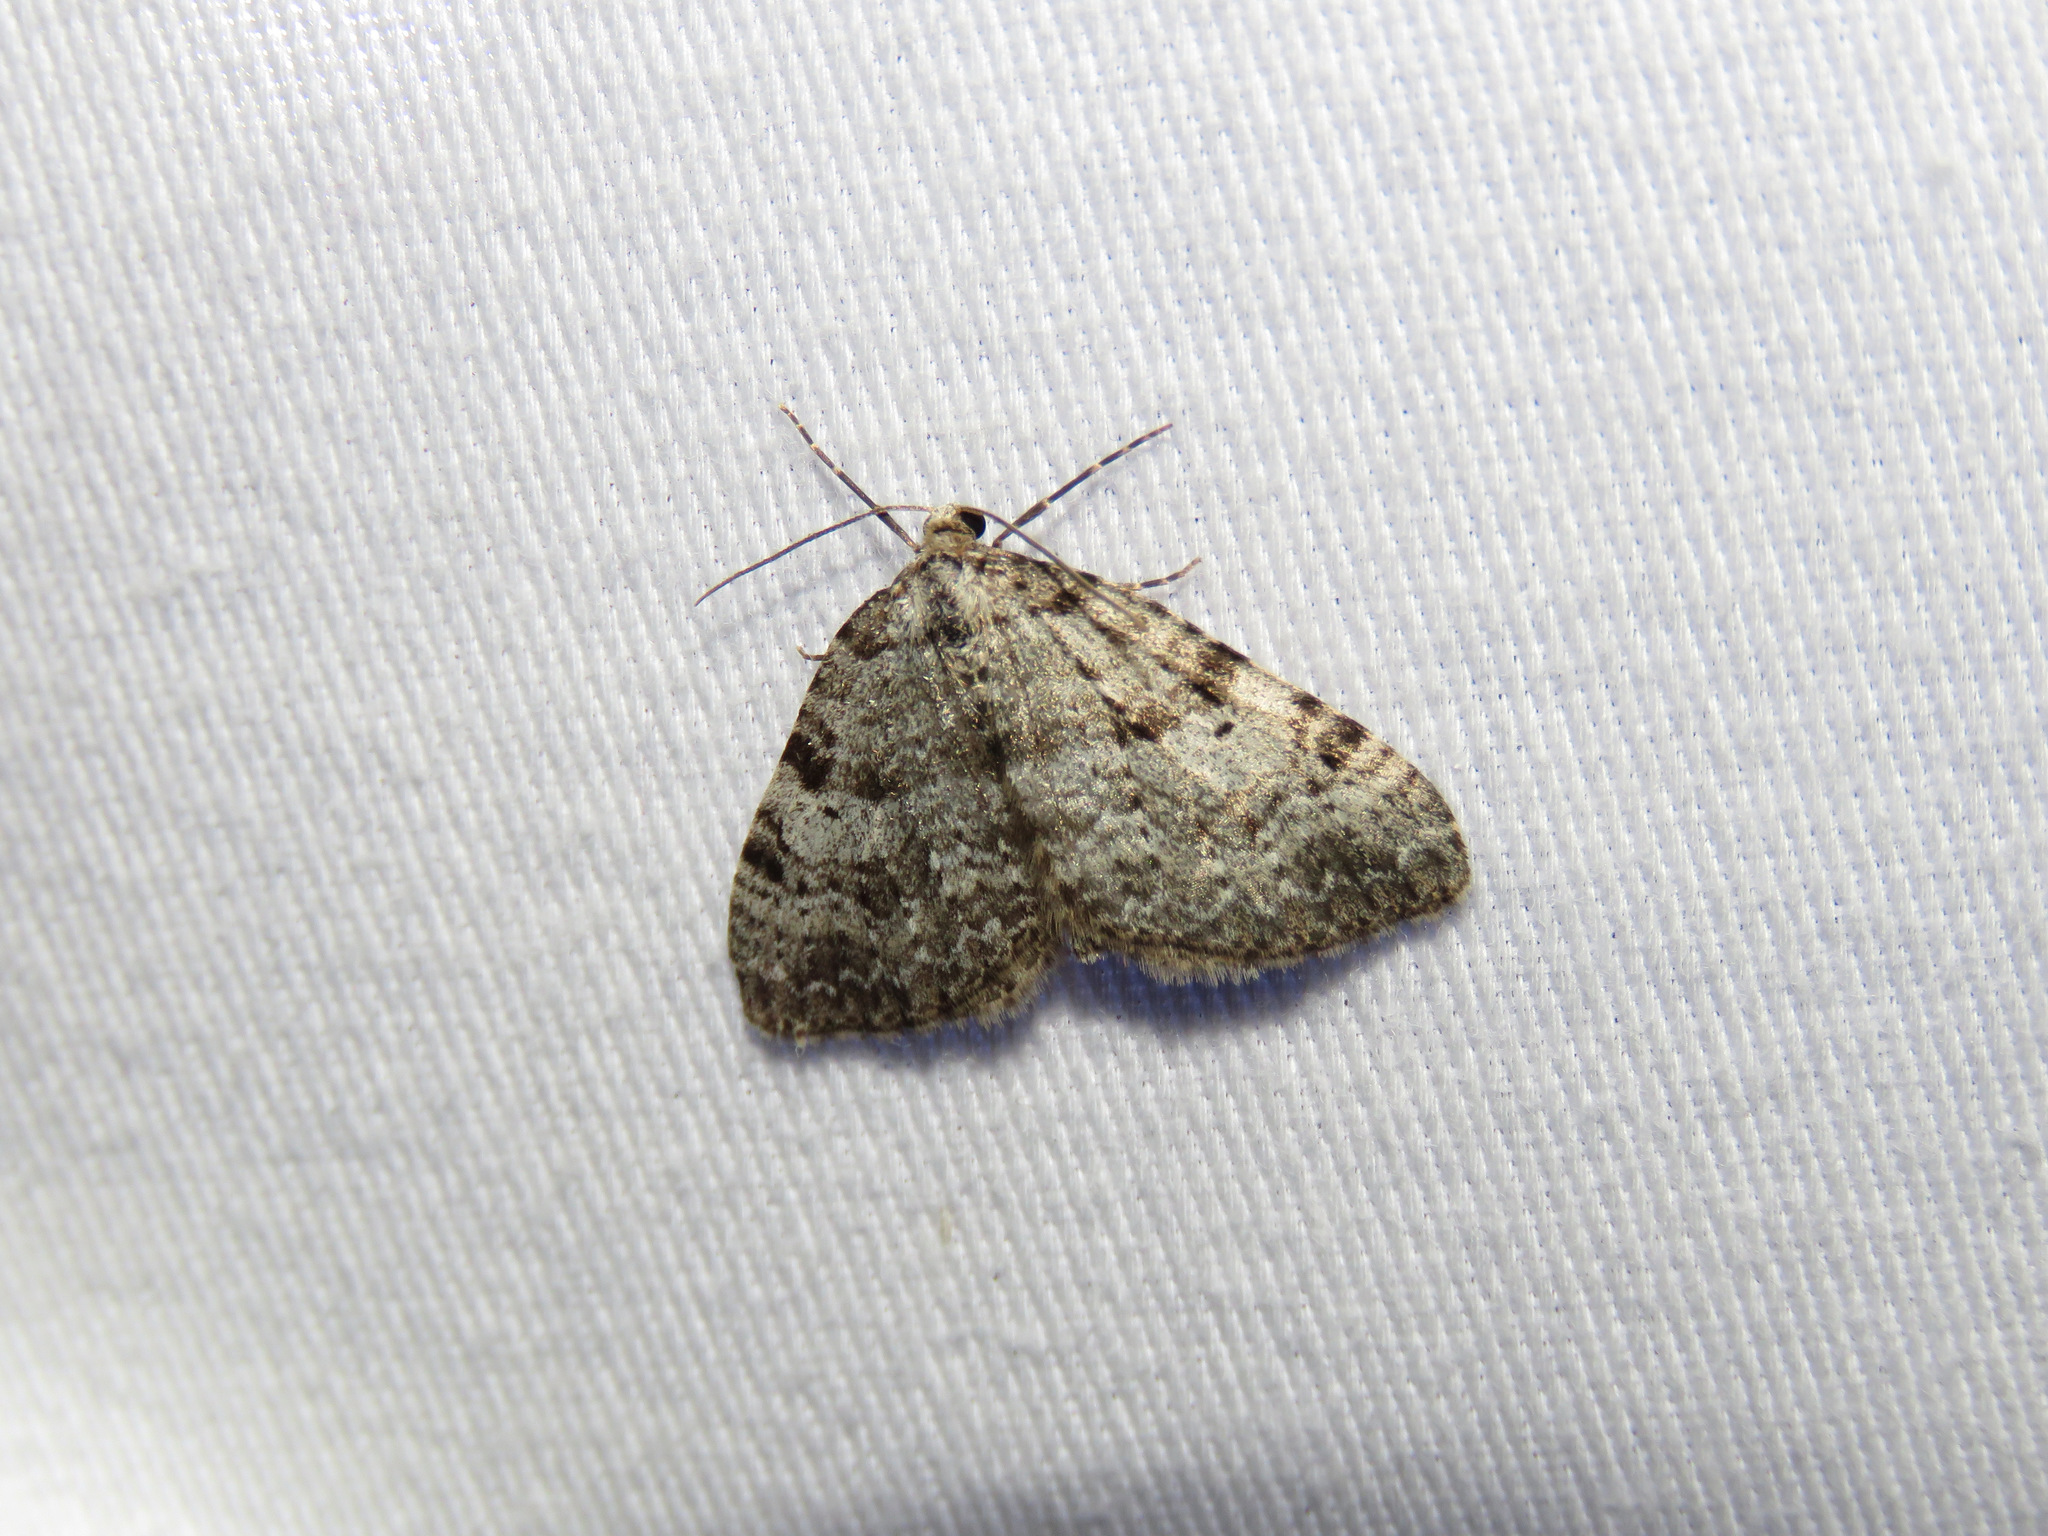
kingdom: Animalia
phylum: Arthropoda
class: Insecta
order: Lepidoptera
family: Geometridae
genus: Perizoma
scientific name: Perizoma curvilinea
